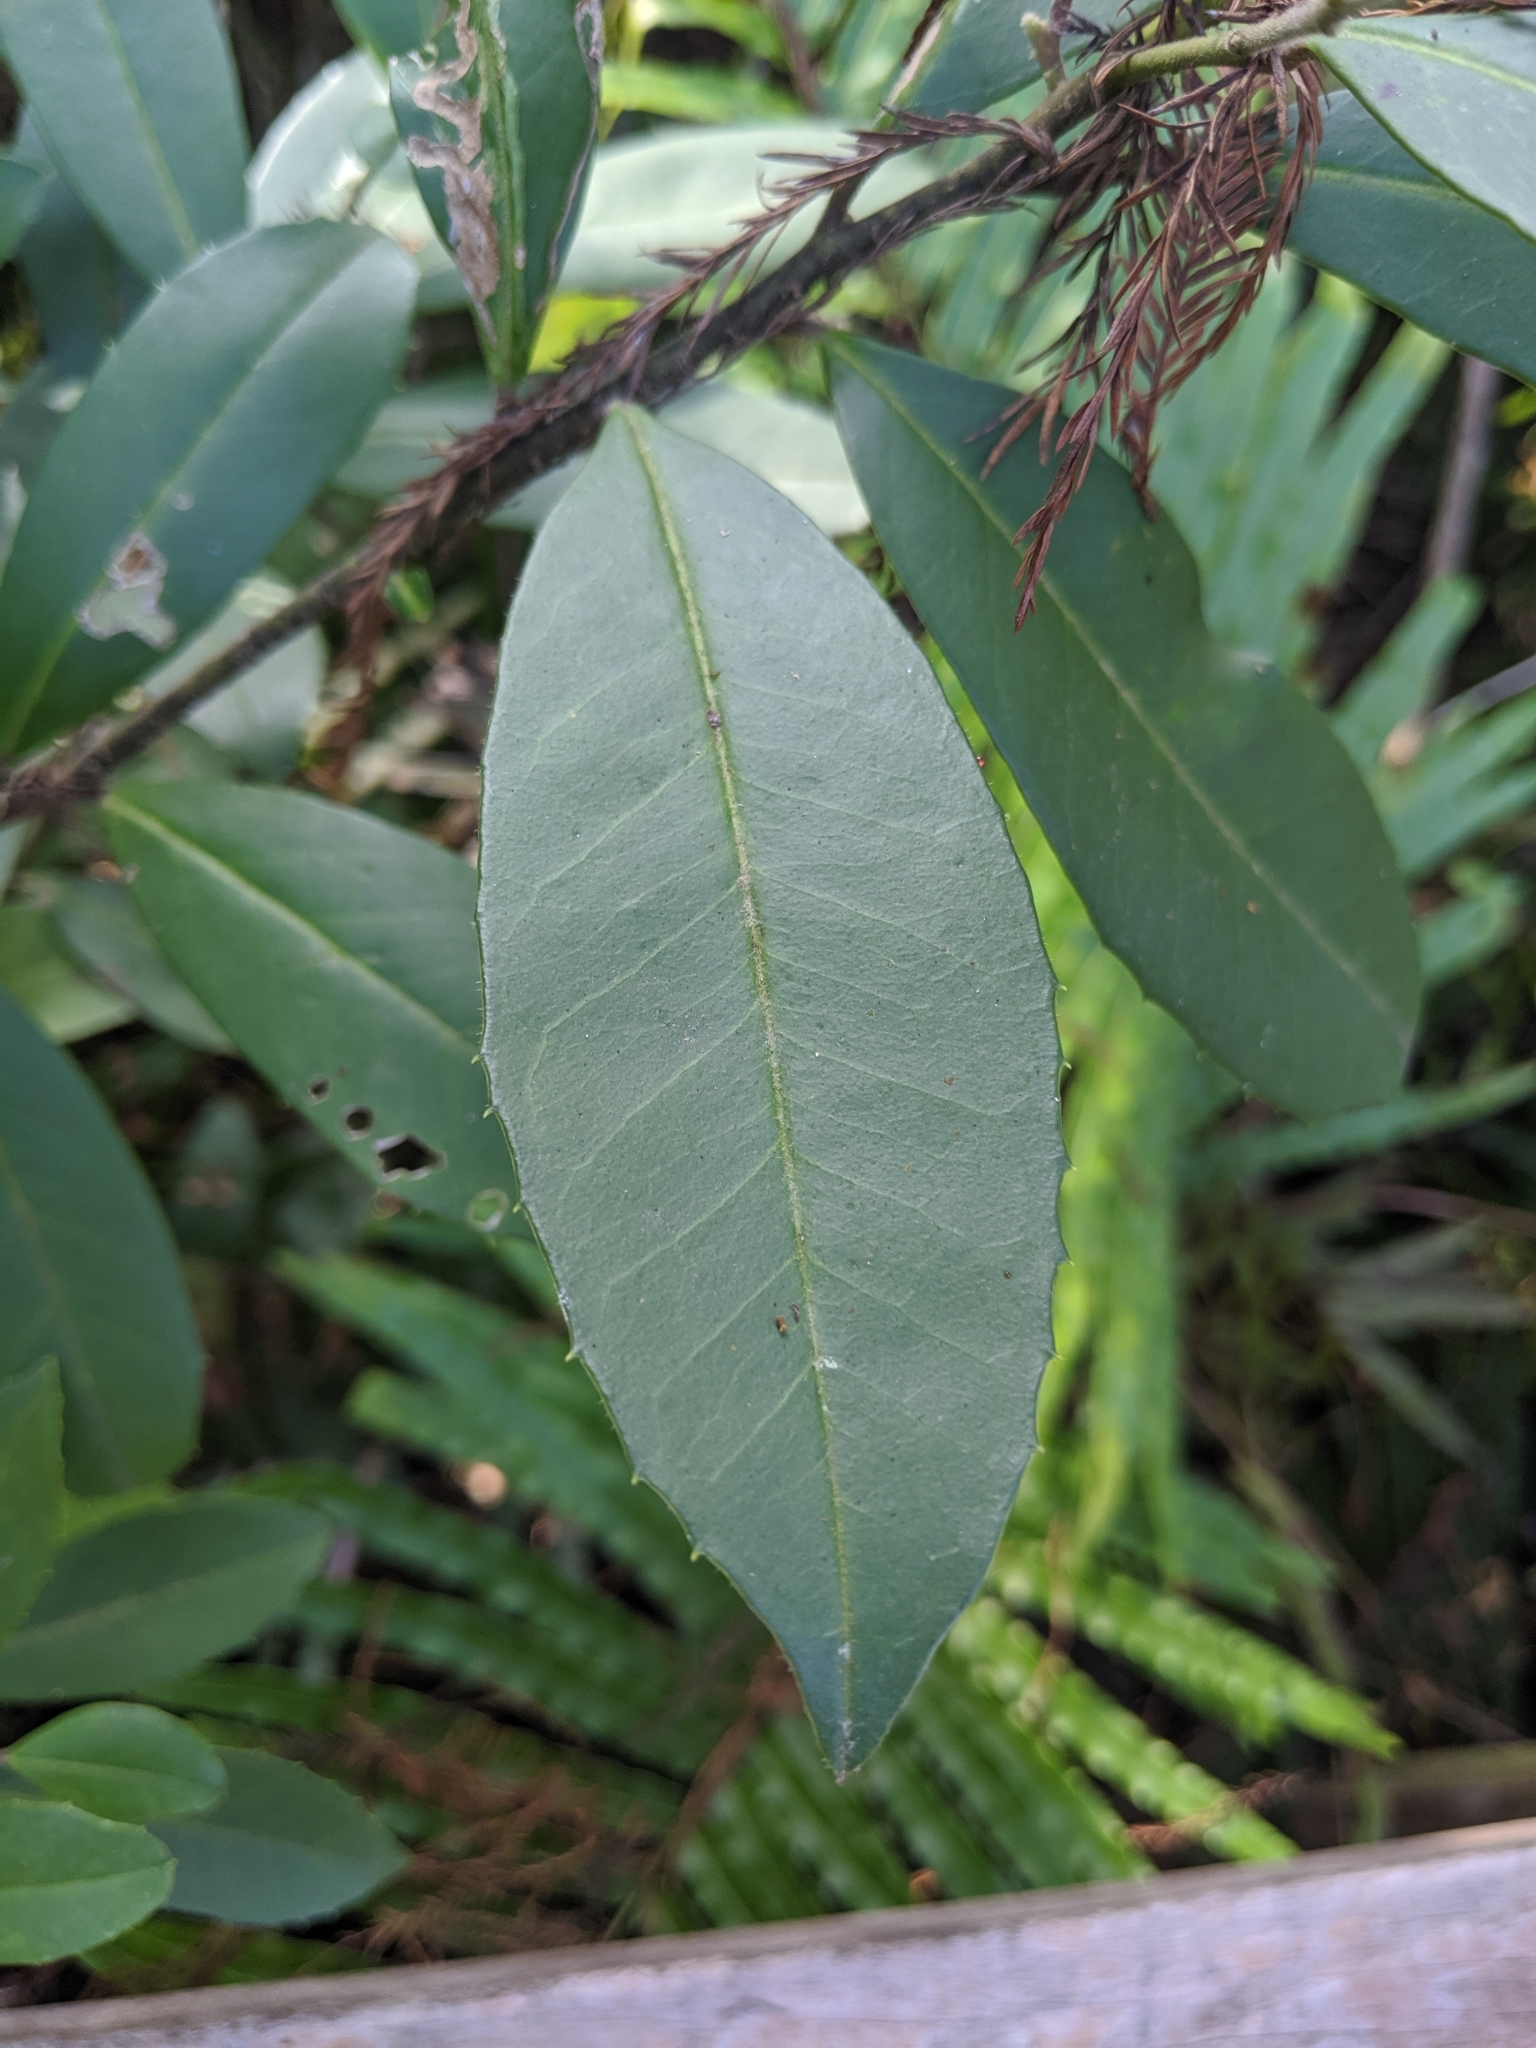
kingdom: Plantae
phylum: Tracheophyta
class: Magnoliopsida
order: Aquifoliales
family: Aquifoliaceae
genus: Ilex
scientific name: Ilex cassine
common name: Dahoon
